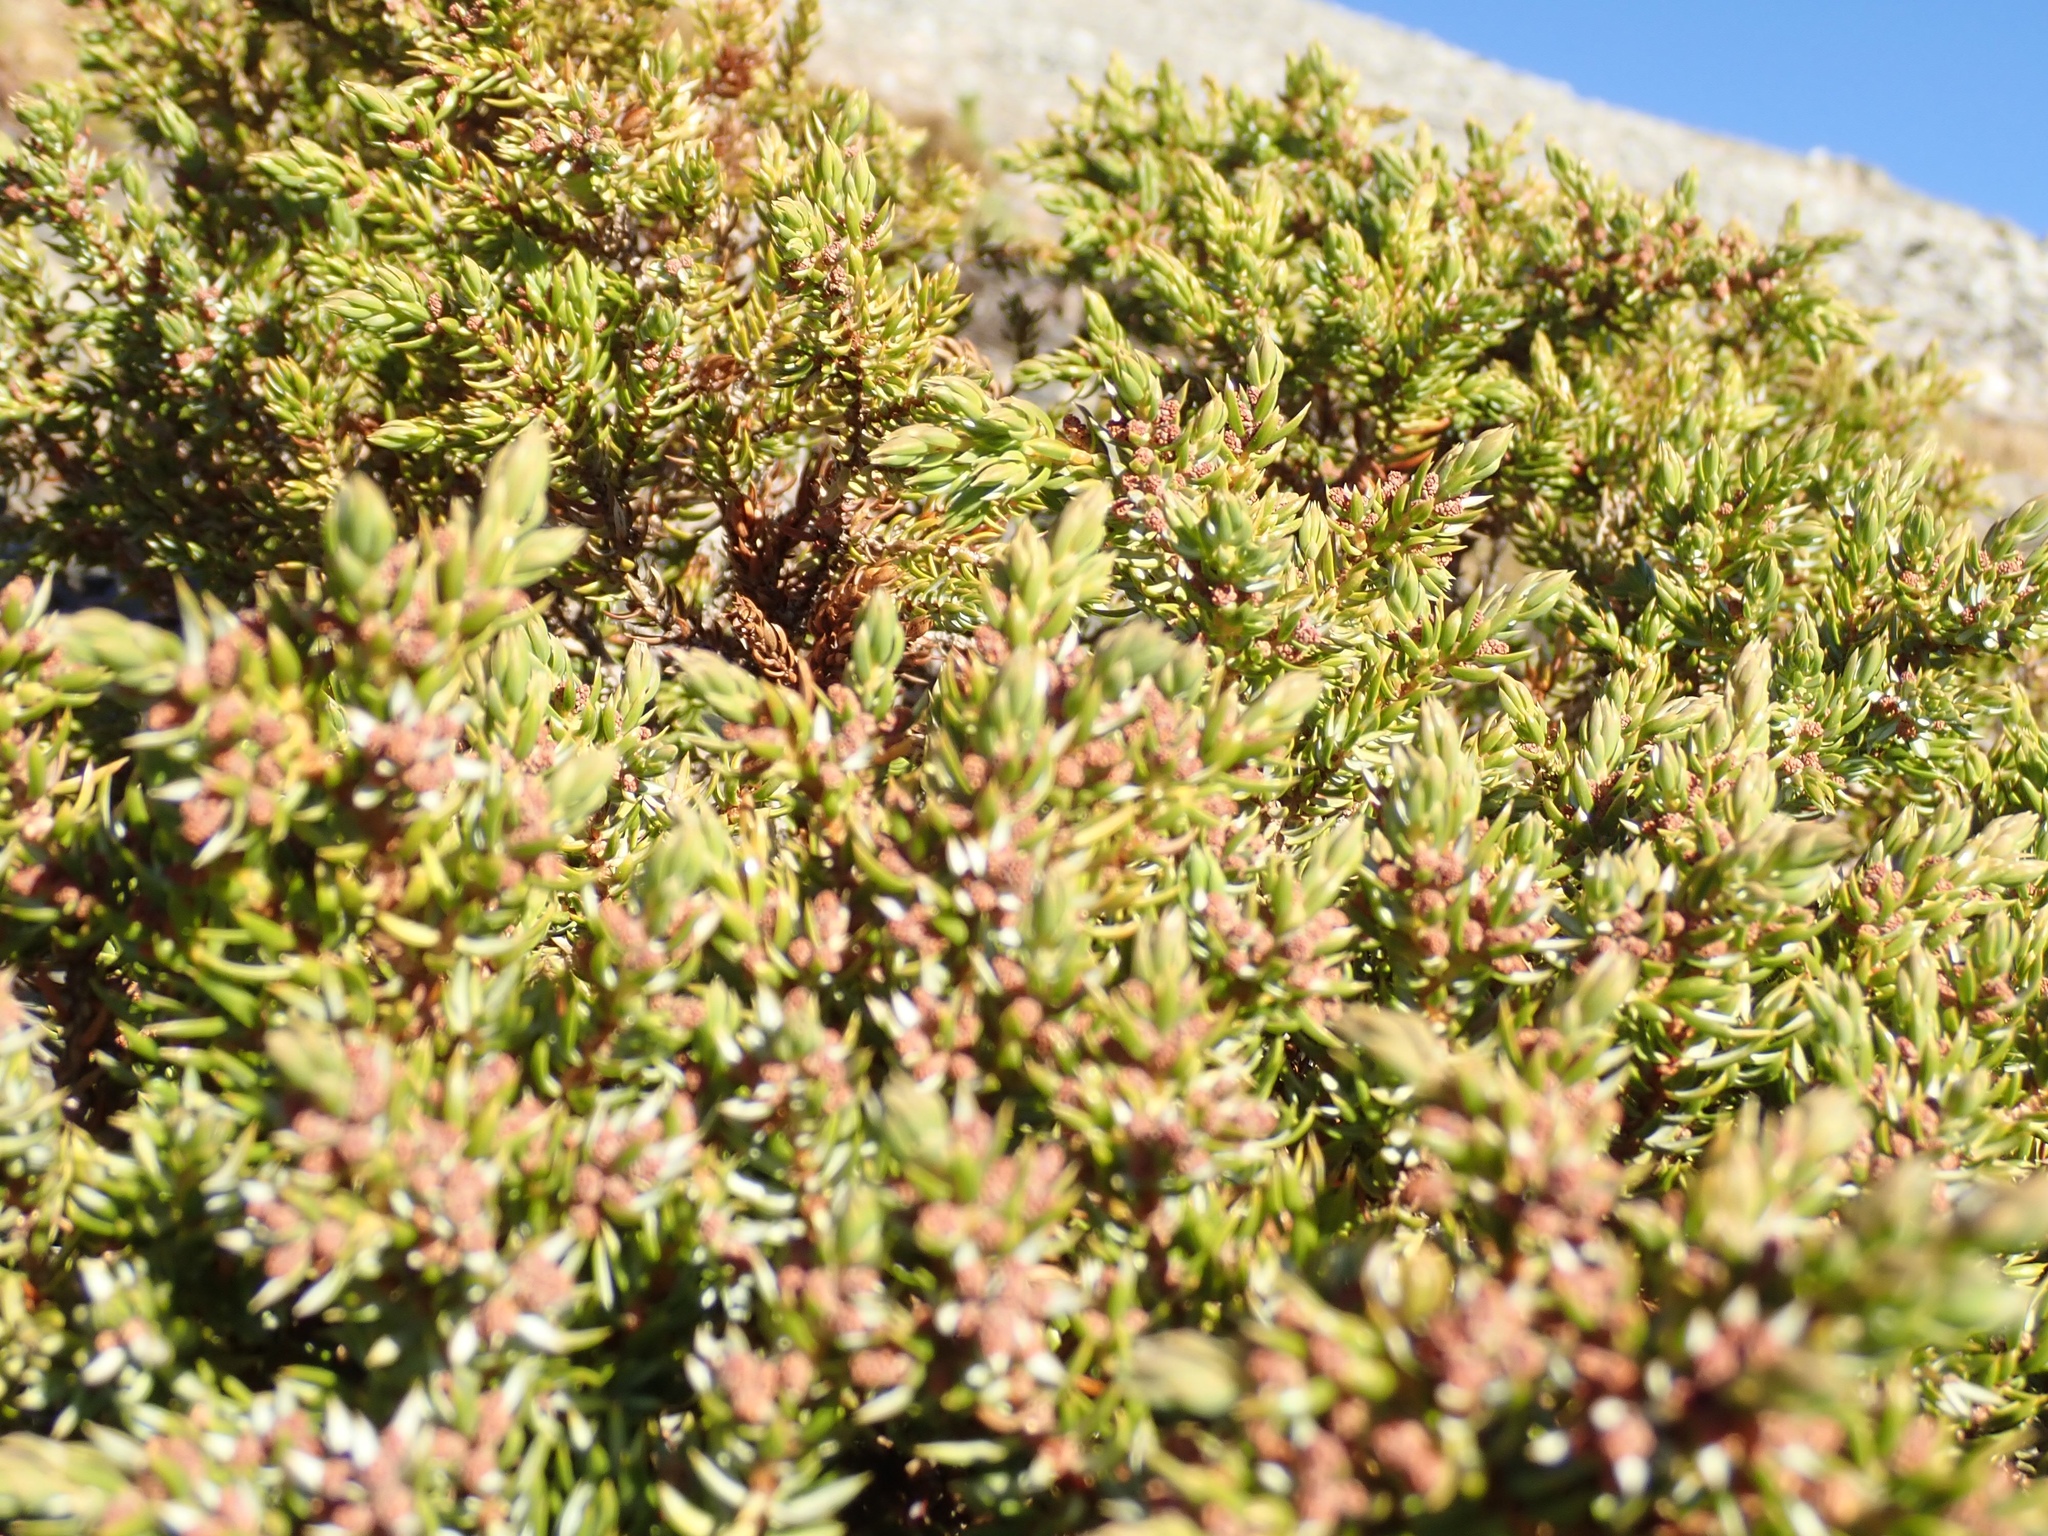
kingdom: Plantae
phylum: Tracheophyta
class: Pinopsida
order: Pinales
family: Cupressaceae
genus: Juniperus
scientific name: Juniperus communis
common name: Common juniper
